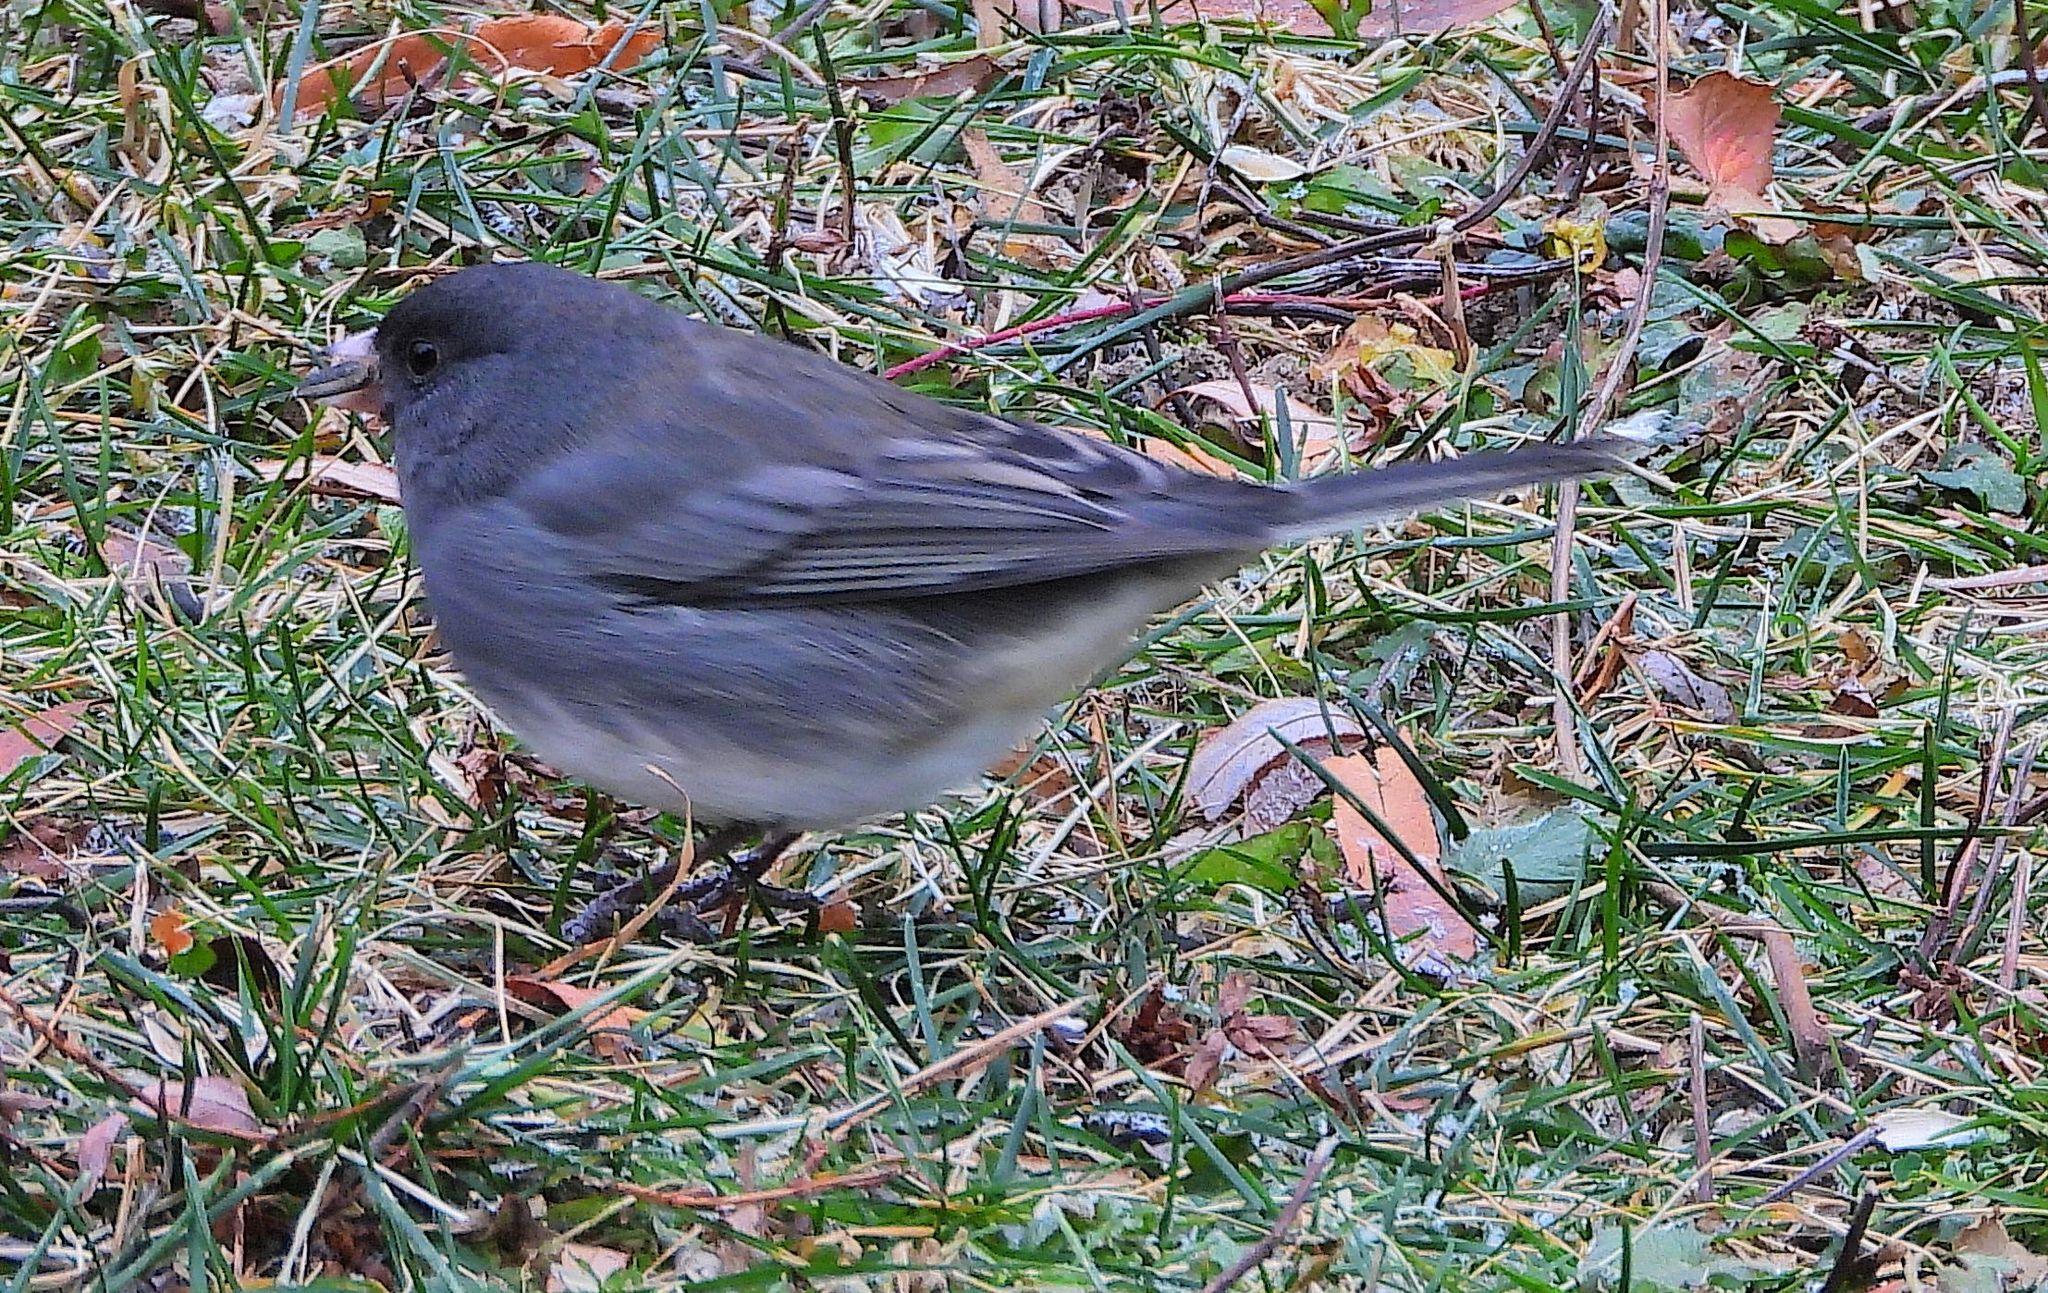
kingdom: Animalia
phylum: Chordata
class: Aves
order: Passeriformes
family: Passerellidae
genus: Junco
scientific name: Junco hyemalis
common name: Dark-eyed junco
